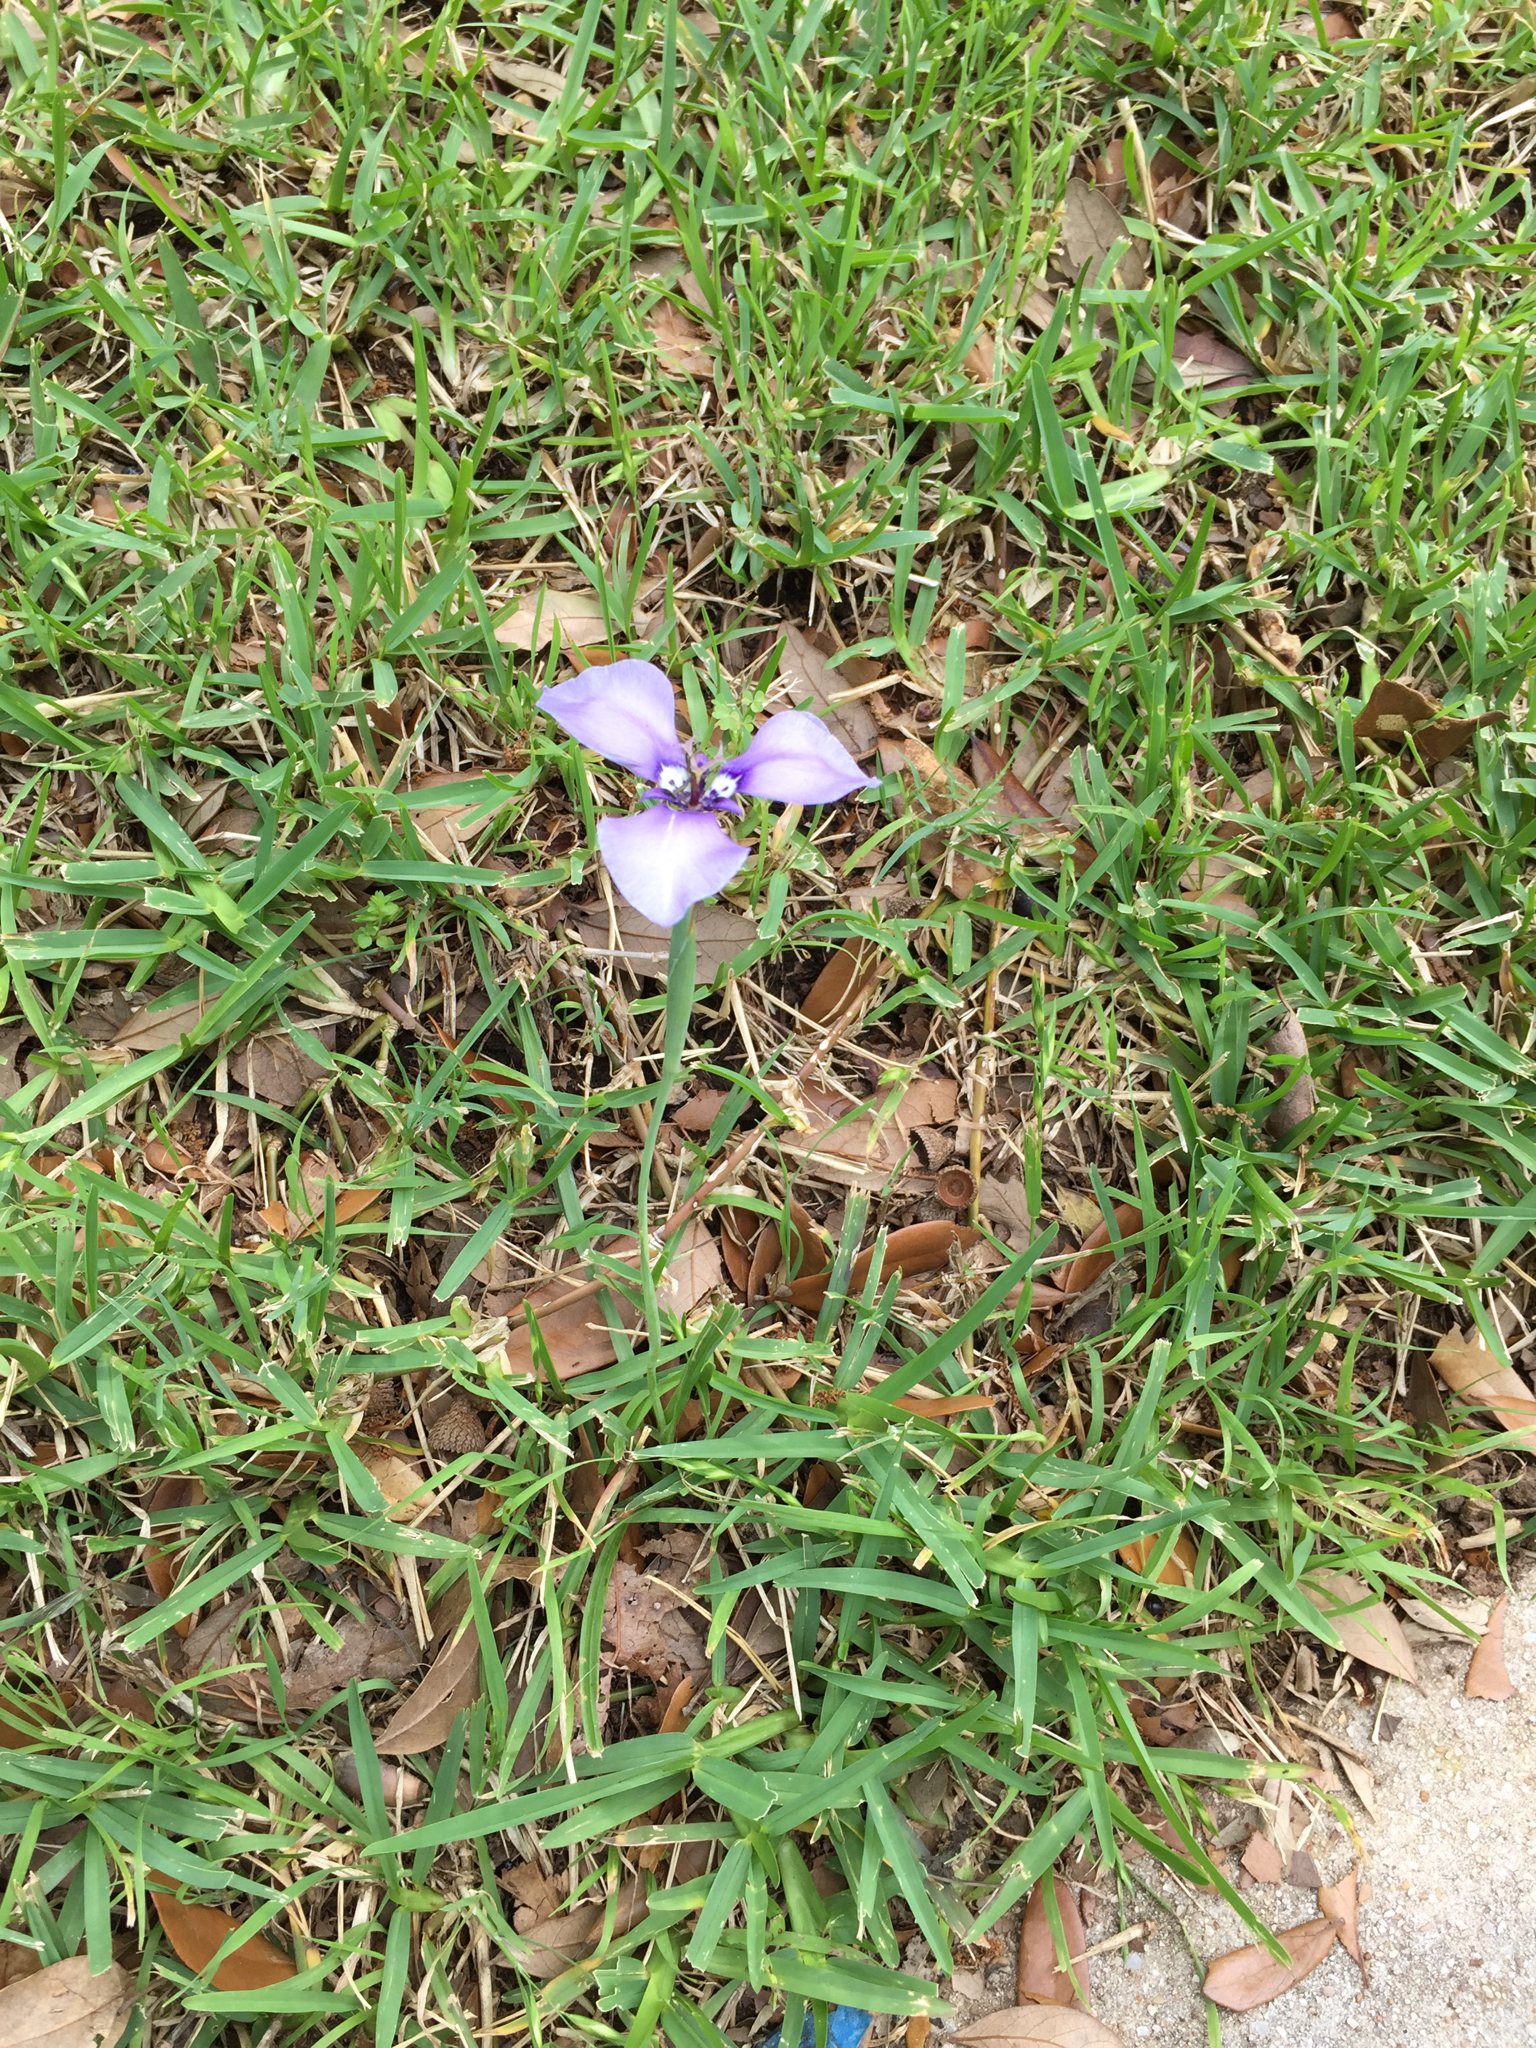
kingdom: Plantae
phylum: Tracheophyta
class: Liliopsida
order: Asparagales
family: Iridaceae
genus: Herbertia
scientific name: Herbertia lahue
